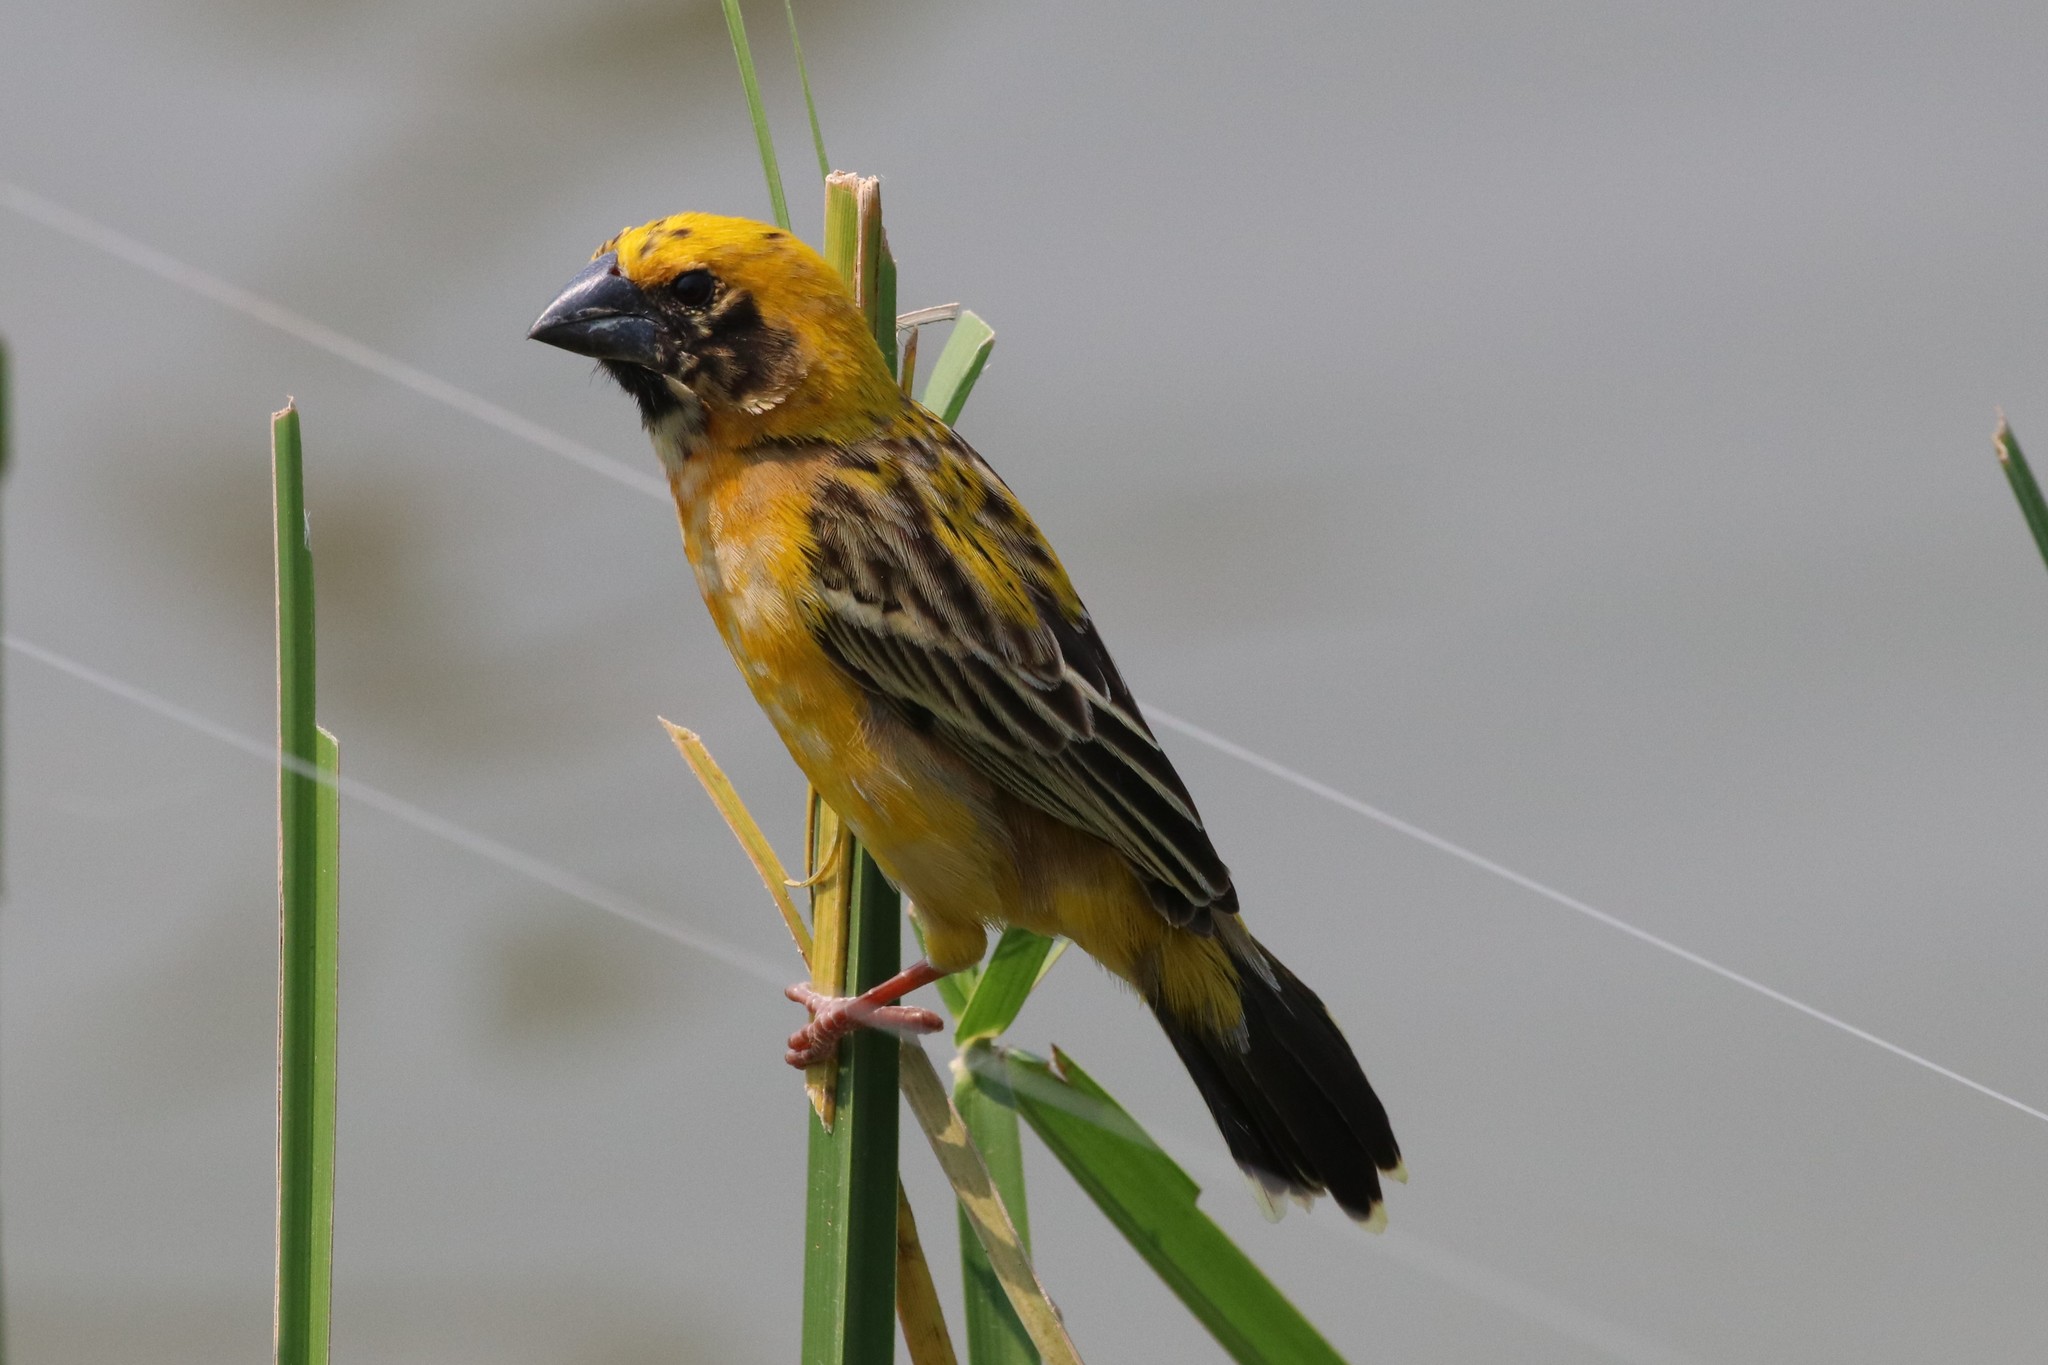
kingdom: Animalia
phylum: Chordata
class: Aves
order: Passeriformes
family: Ploceidae
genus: Ploceus
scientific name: Ploceus hypoxanthus
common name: Asian golden weaver
